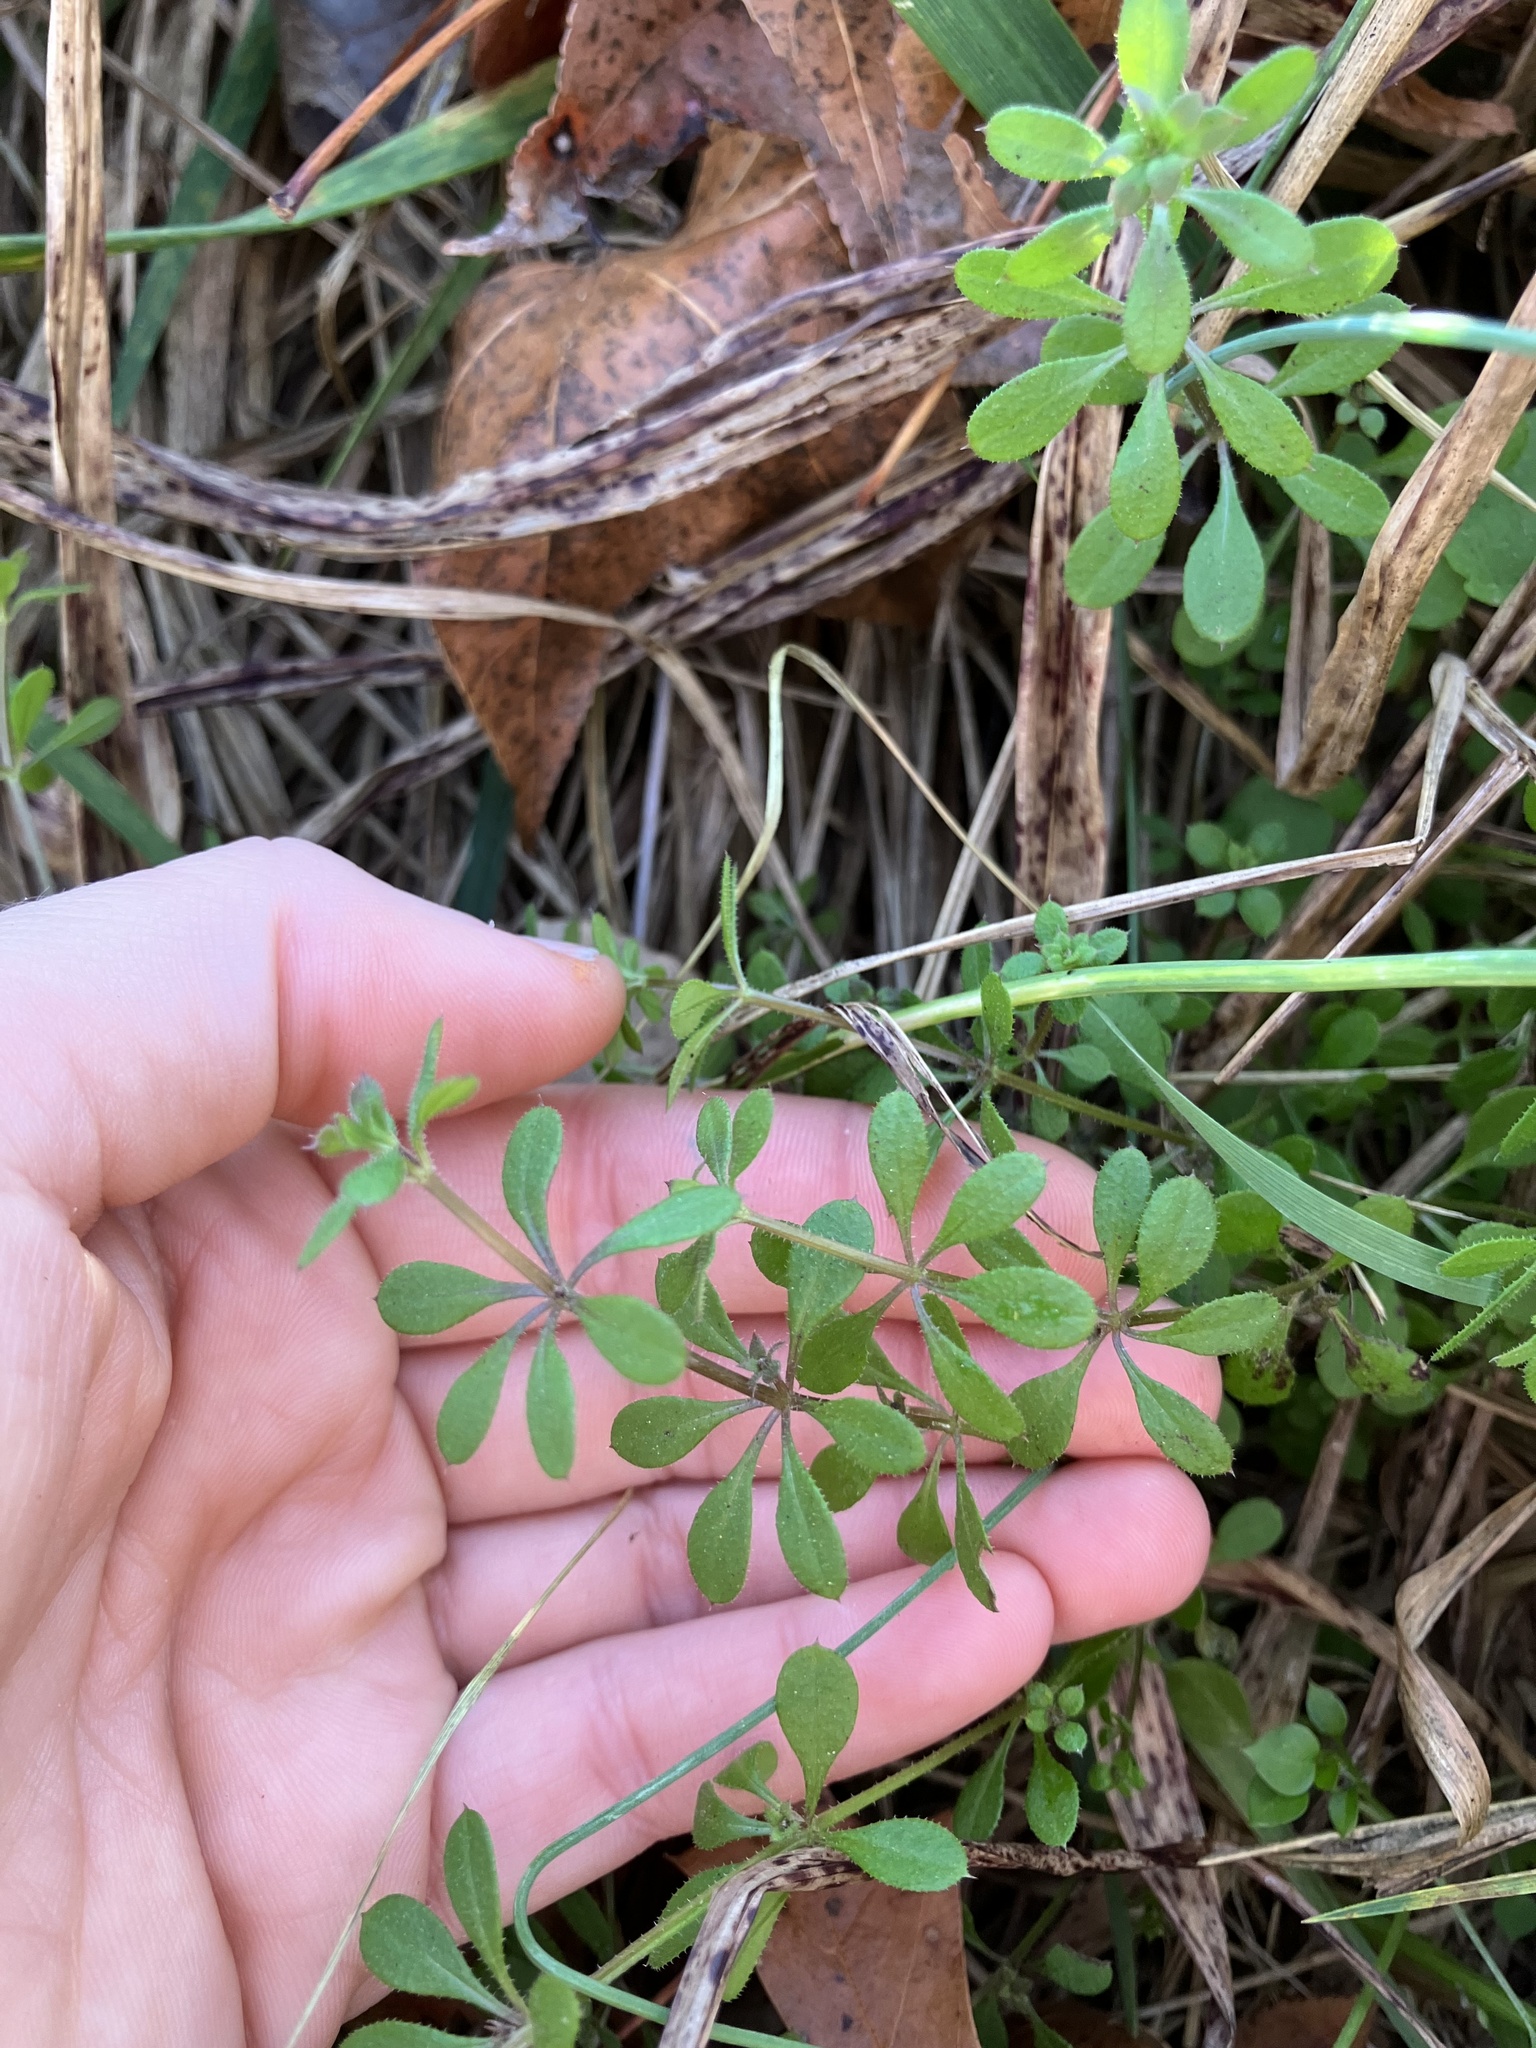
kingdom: Plantae
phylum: Tracheophyta
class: Magnoliopsida
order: Gentianales
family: Rubiaceae
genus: Galium
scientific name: Galium aparine
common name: Cleavers
